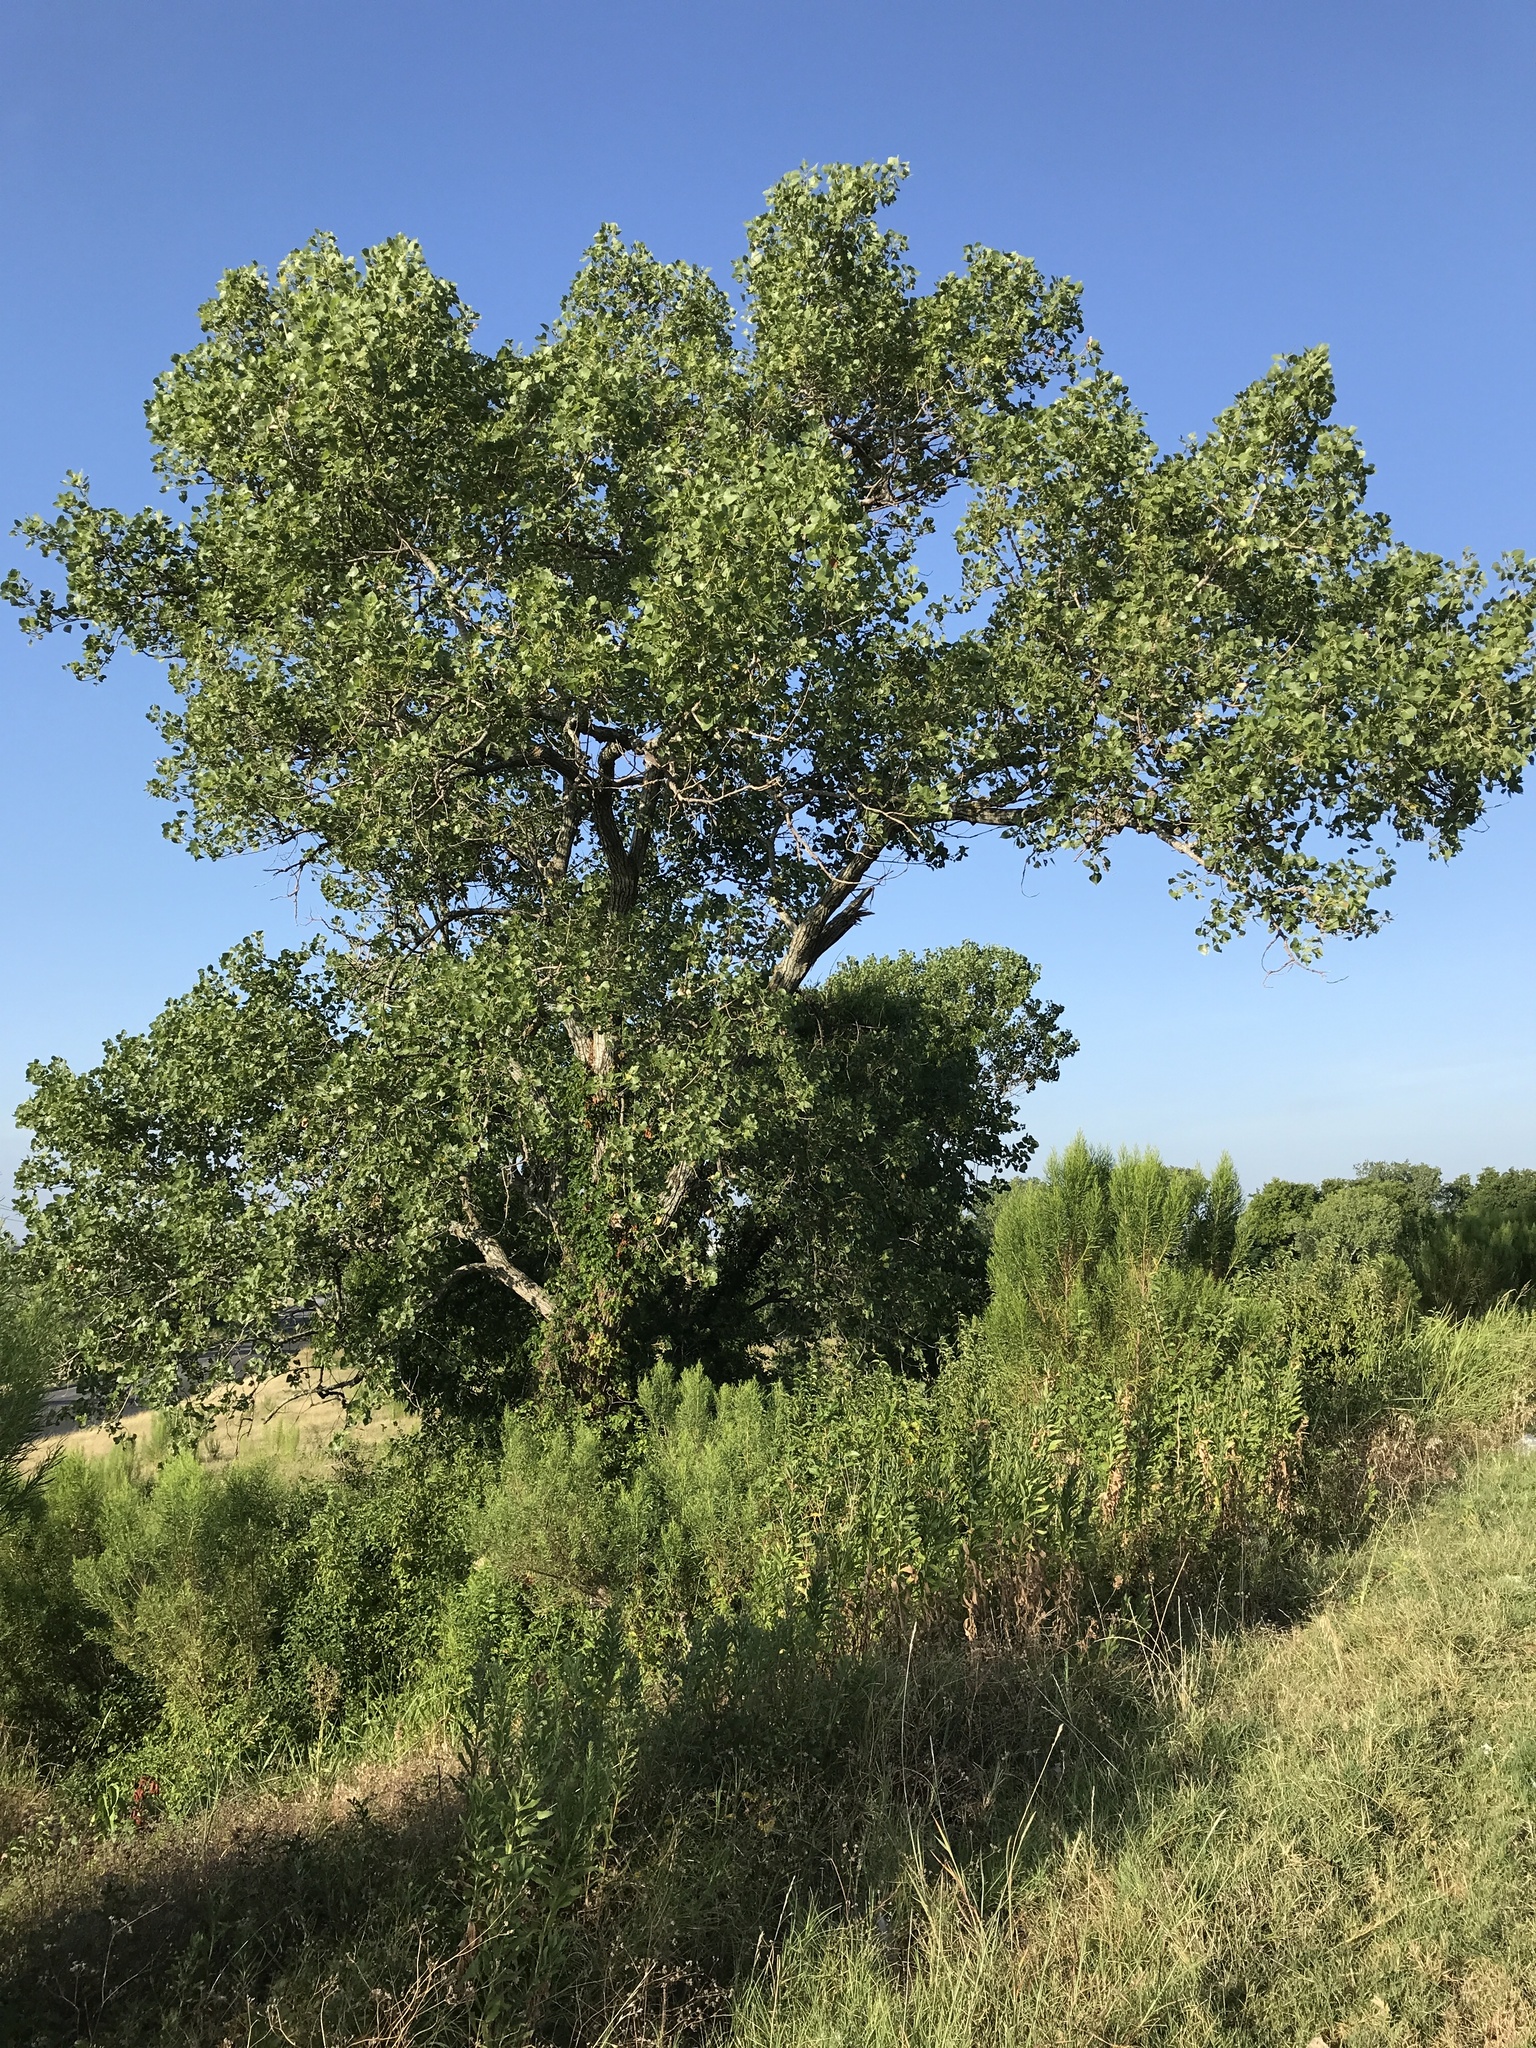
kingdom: Plantae
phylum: Tracheophyta
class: Magnoliopsida
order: Malpighiales
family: Salicaceae
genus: Populus
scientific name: Populus deltoides
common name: Eastern cottonwood
